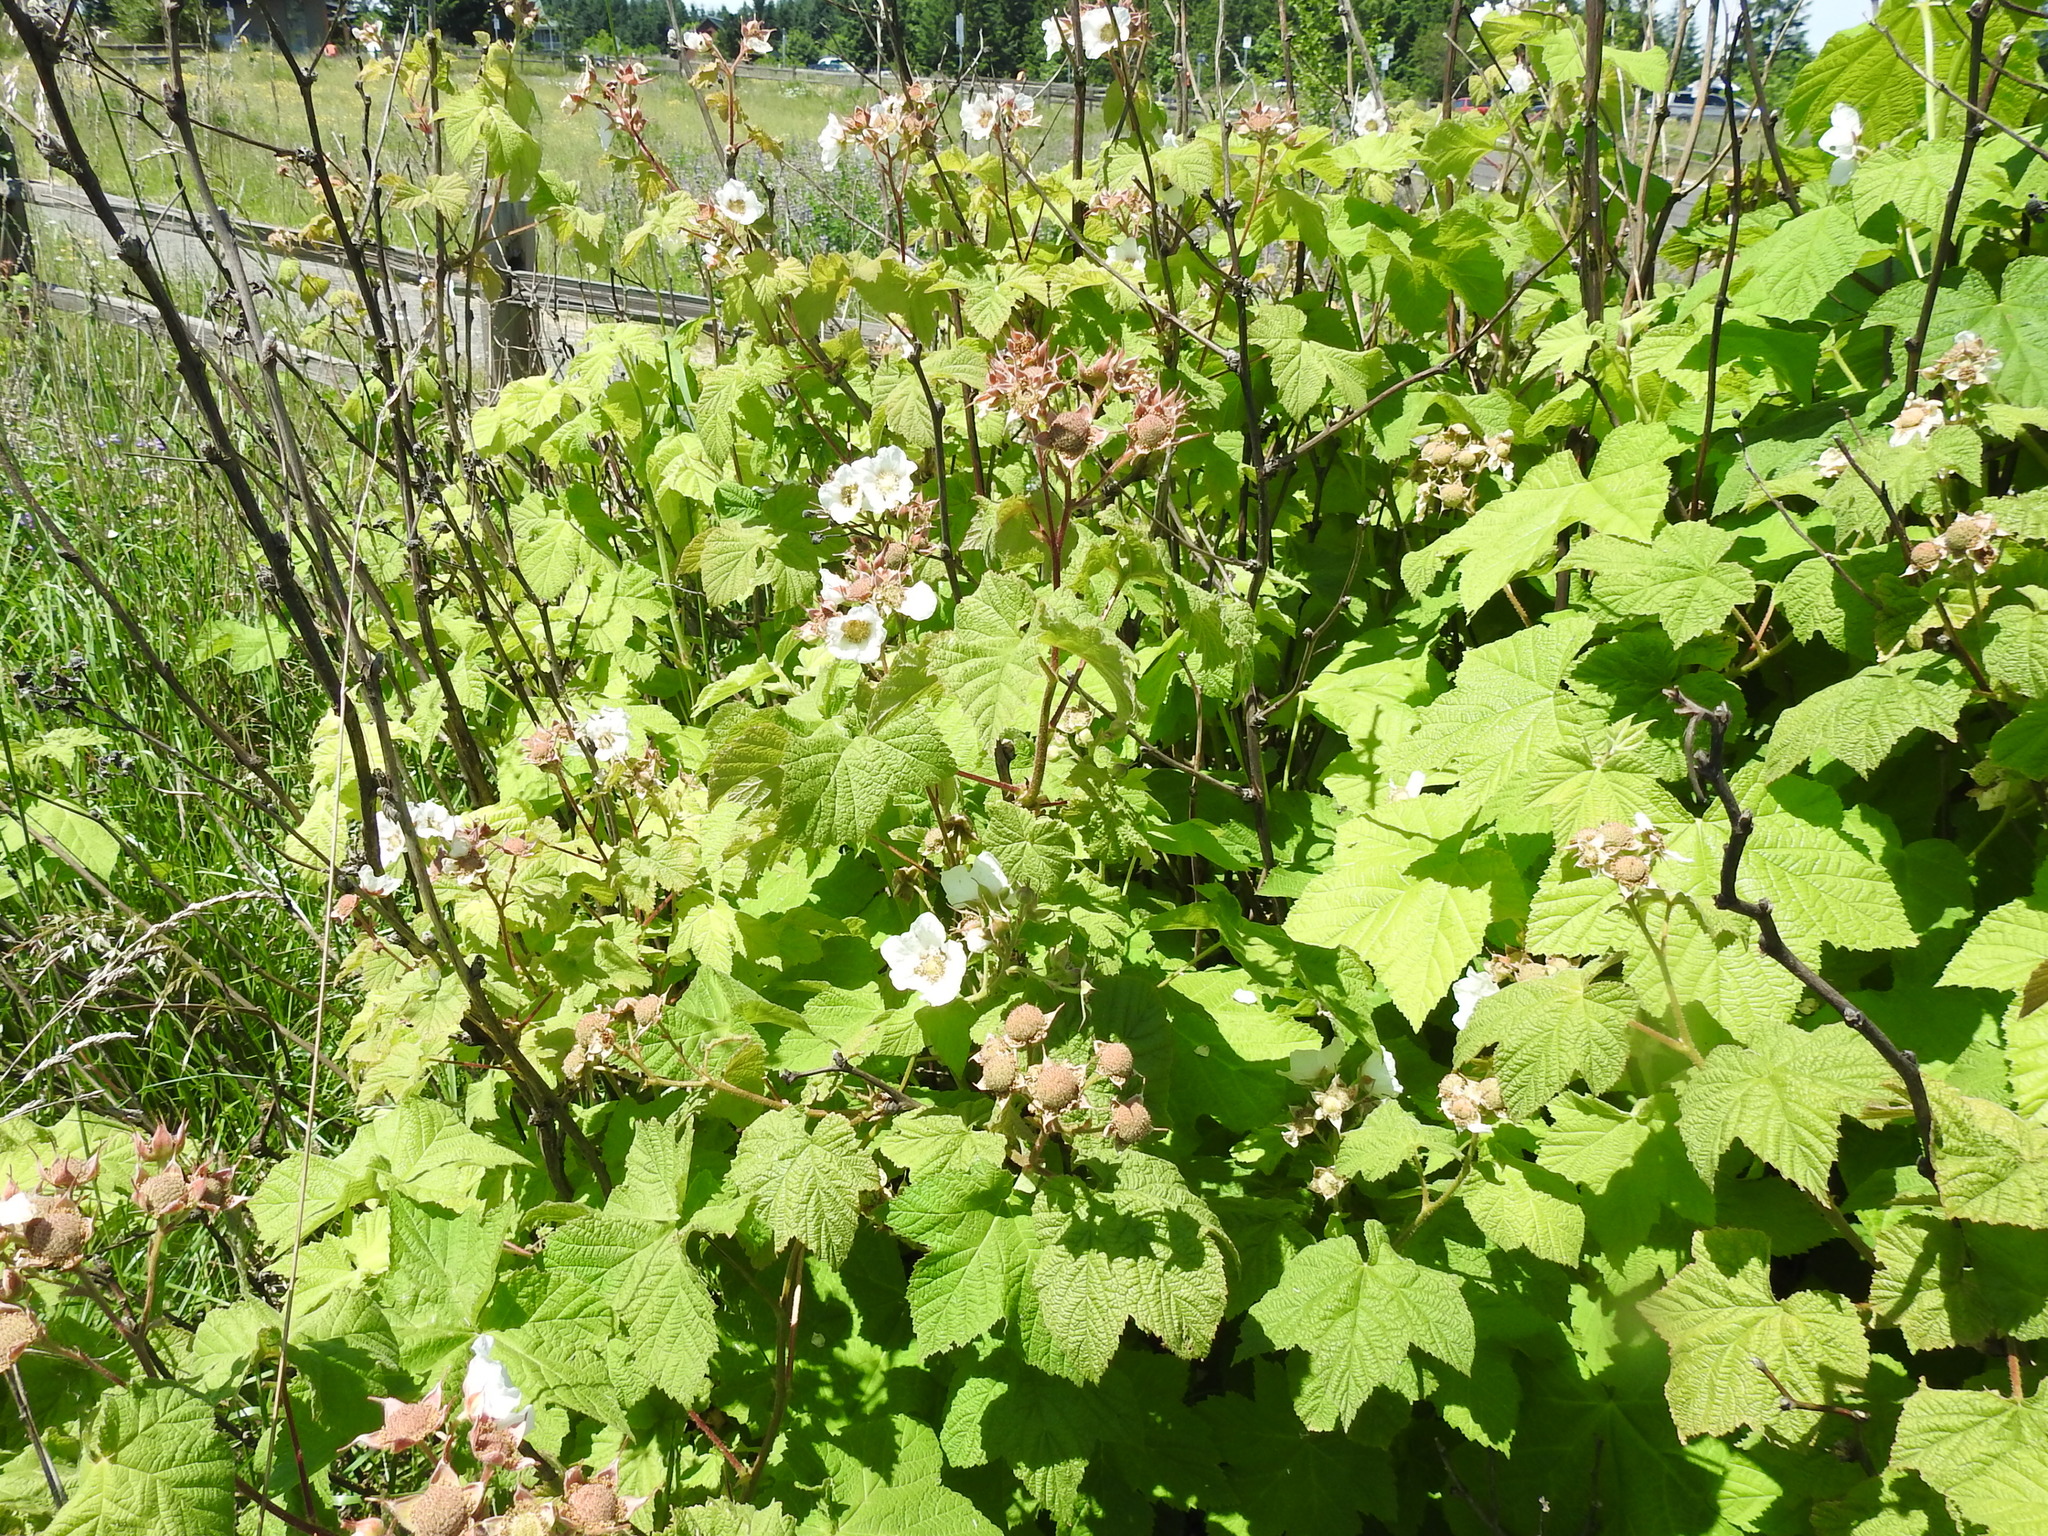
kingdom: Plantae
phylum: Tracheophyta
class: Magnoliopsida
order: Rosales
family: Rosaceae
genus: Rubus
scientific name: Rubus parviflorus
